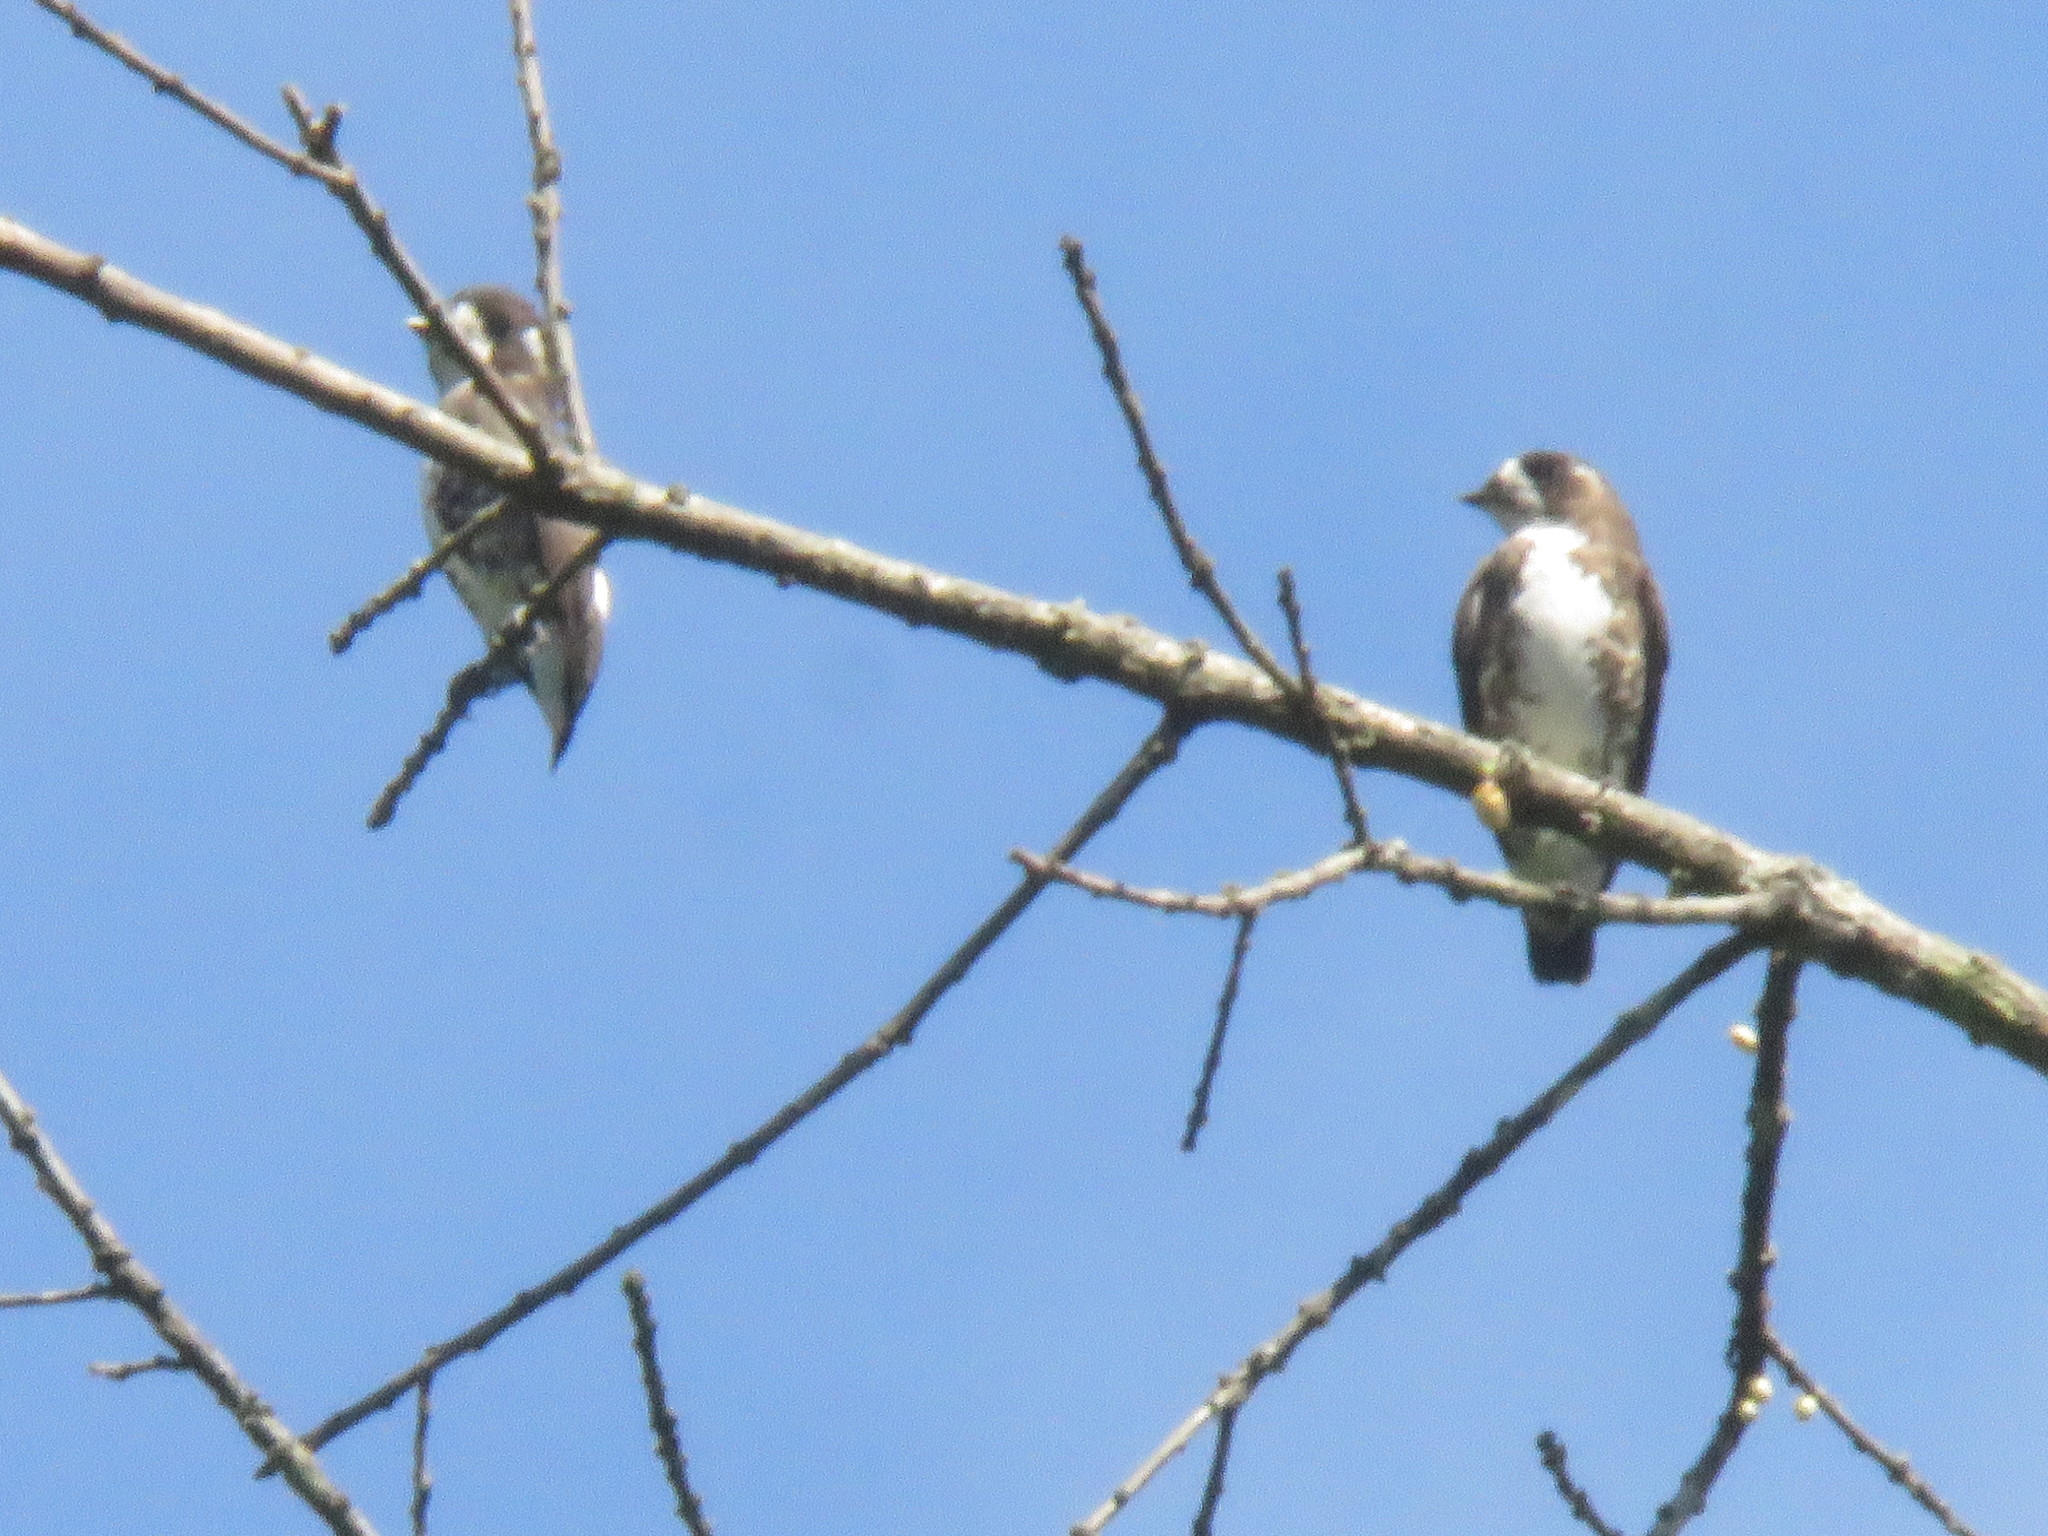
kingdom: Animalia
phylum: Chordata
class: Aves
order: Passeriformes
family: Cotingidae
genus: Iodopleura
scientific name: Iodopleura isabellae
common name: White-browed purpletuft
